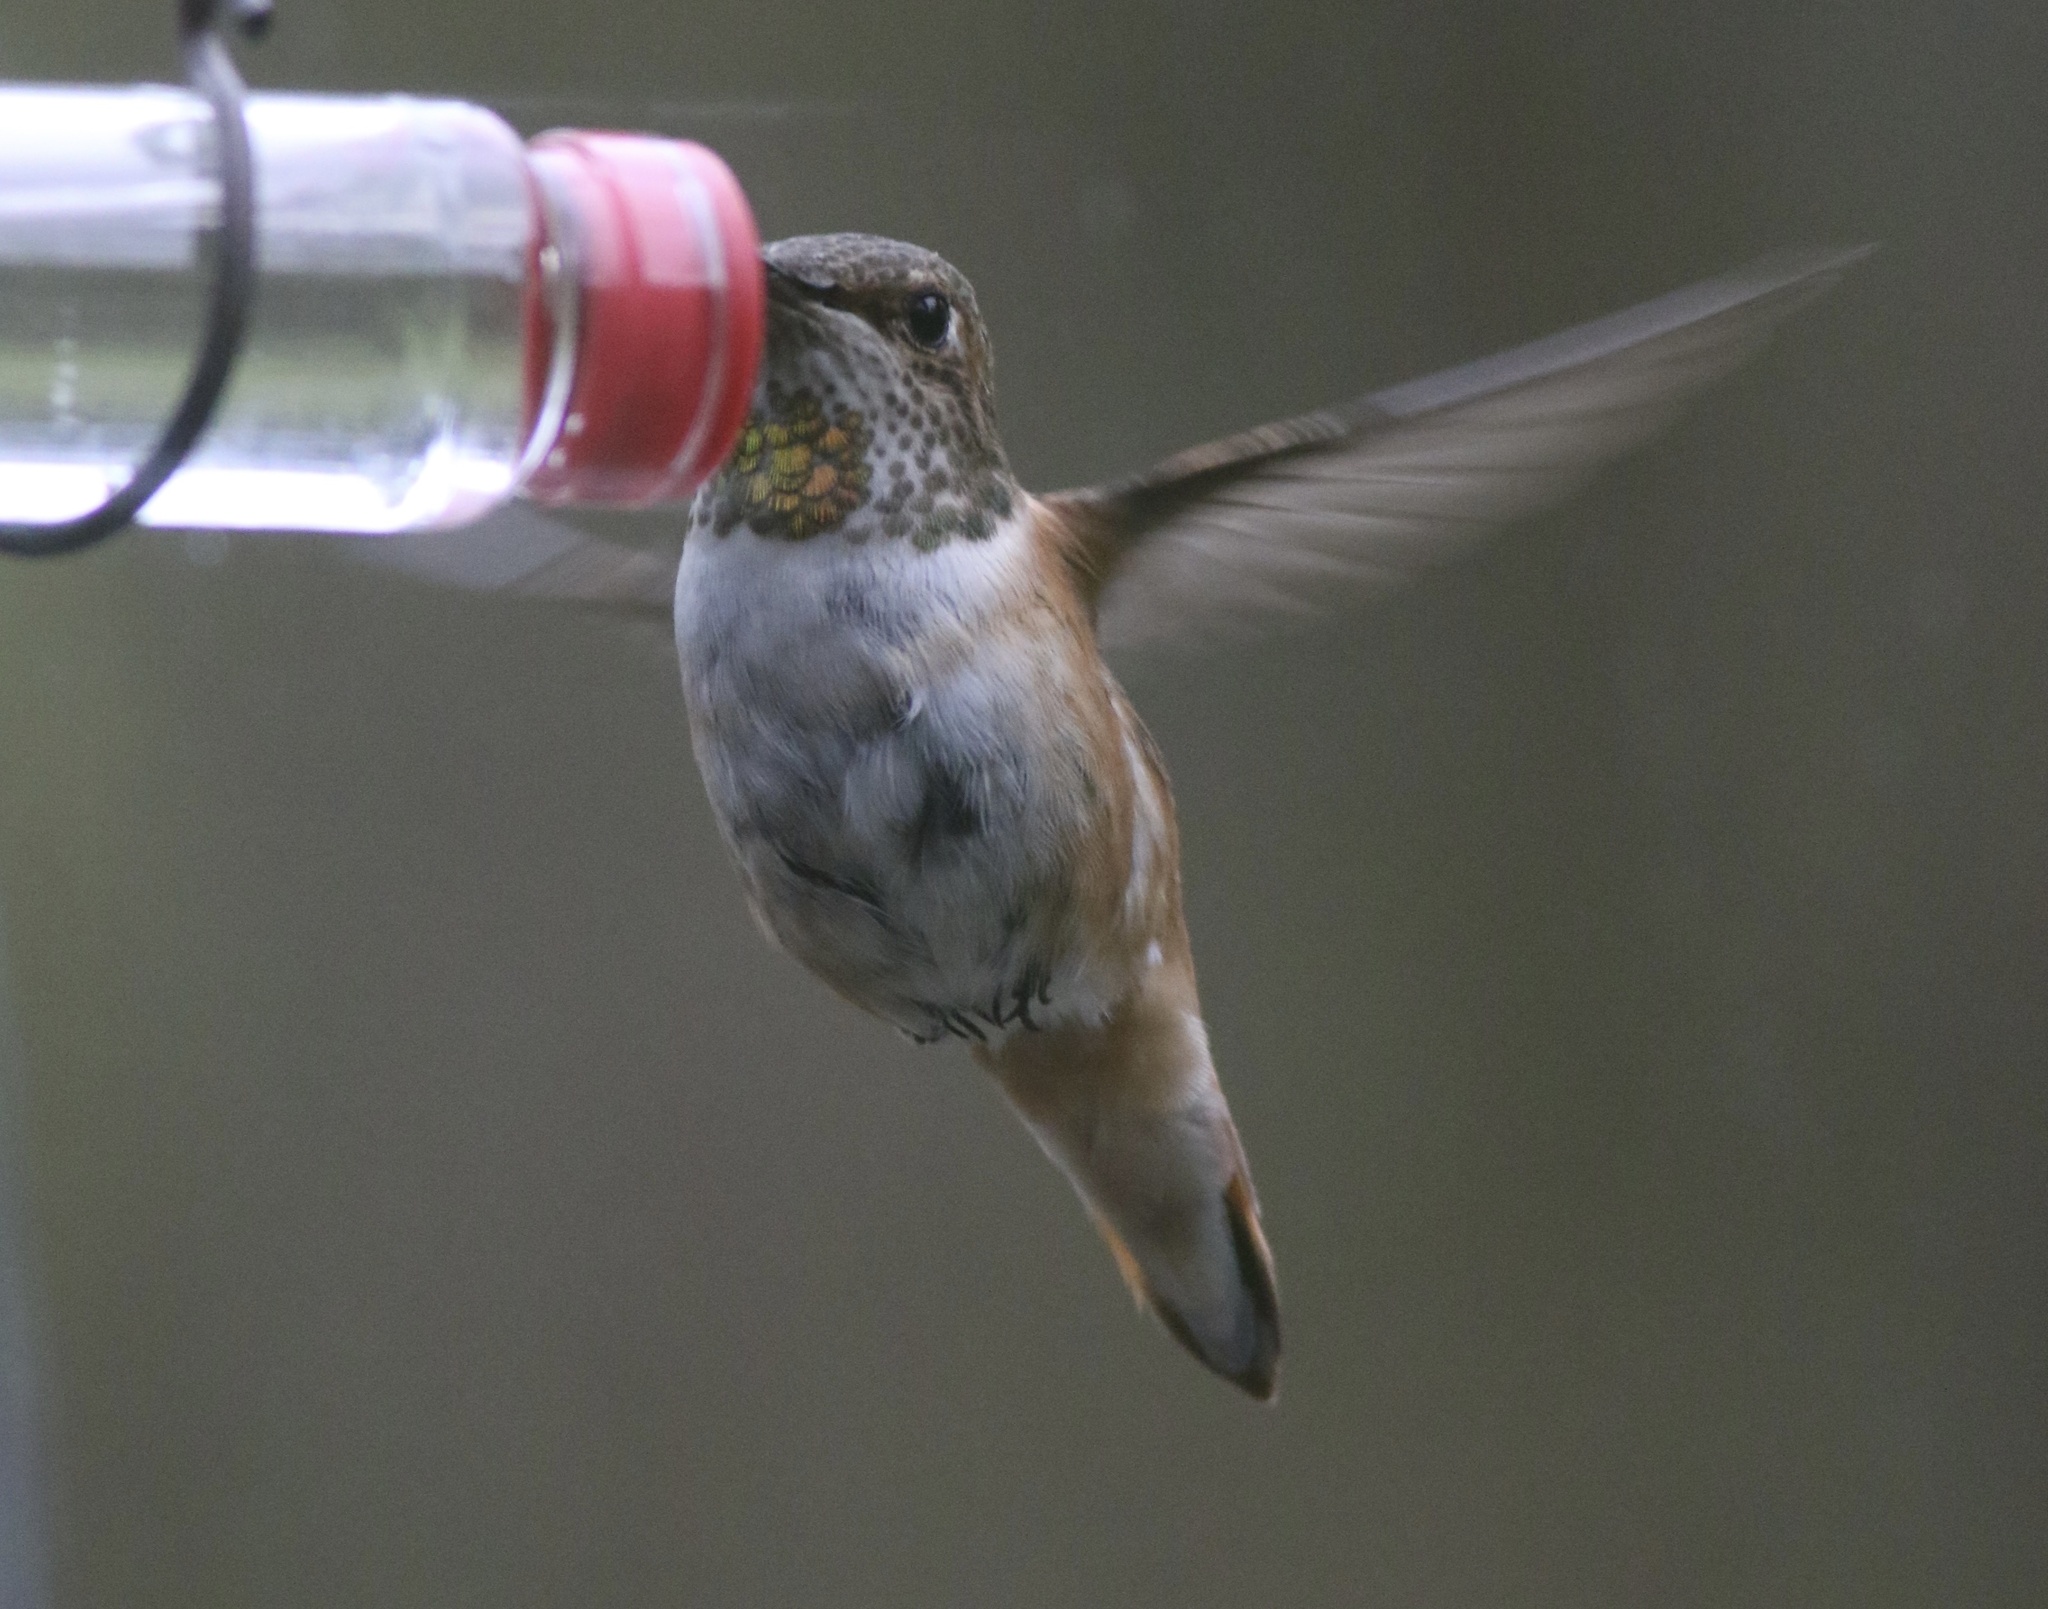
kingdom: Animalia
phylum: Chordata
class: Aves
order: Apodiformes
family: Trochilidae
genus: Selasphorus
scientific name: Selasphorus sasin
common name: Allen's hummingbird
